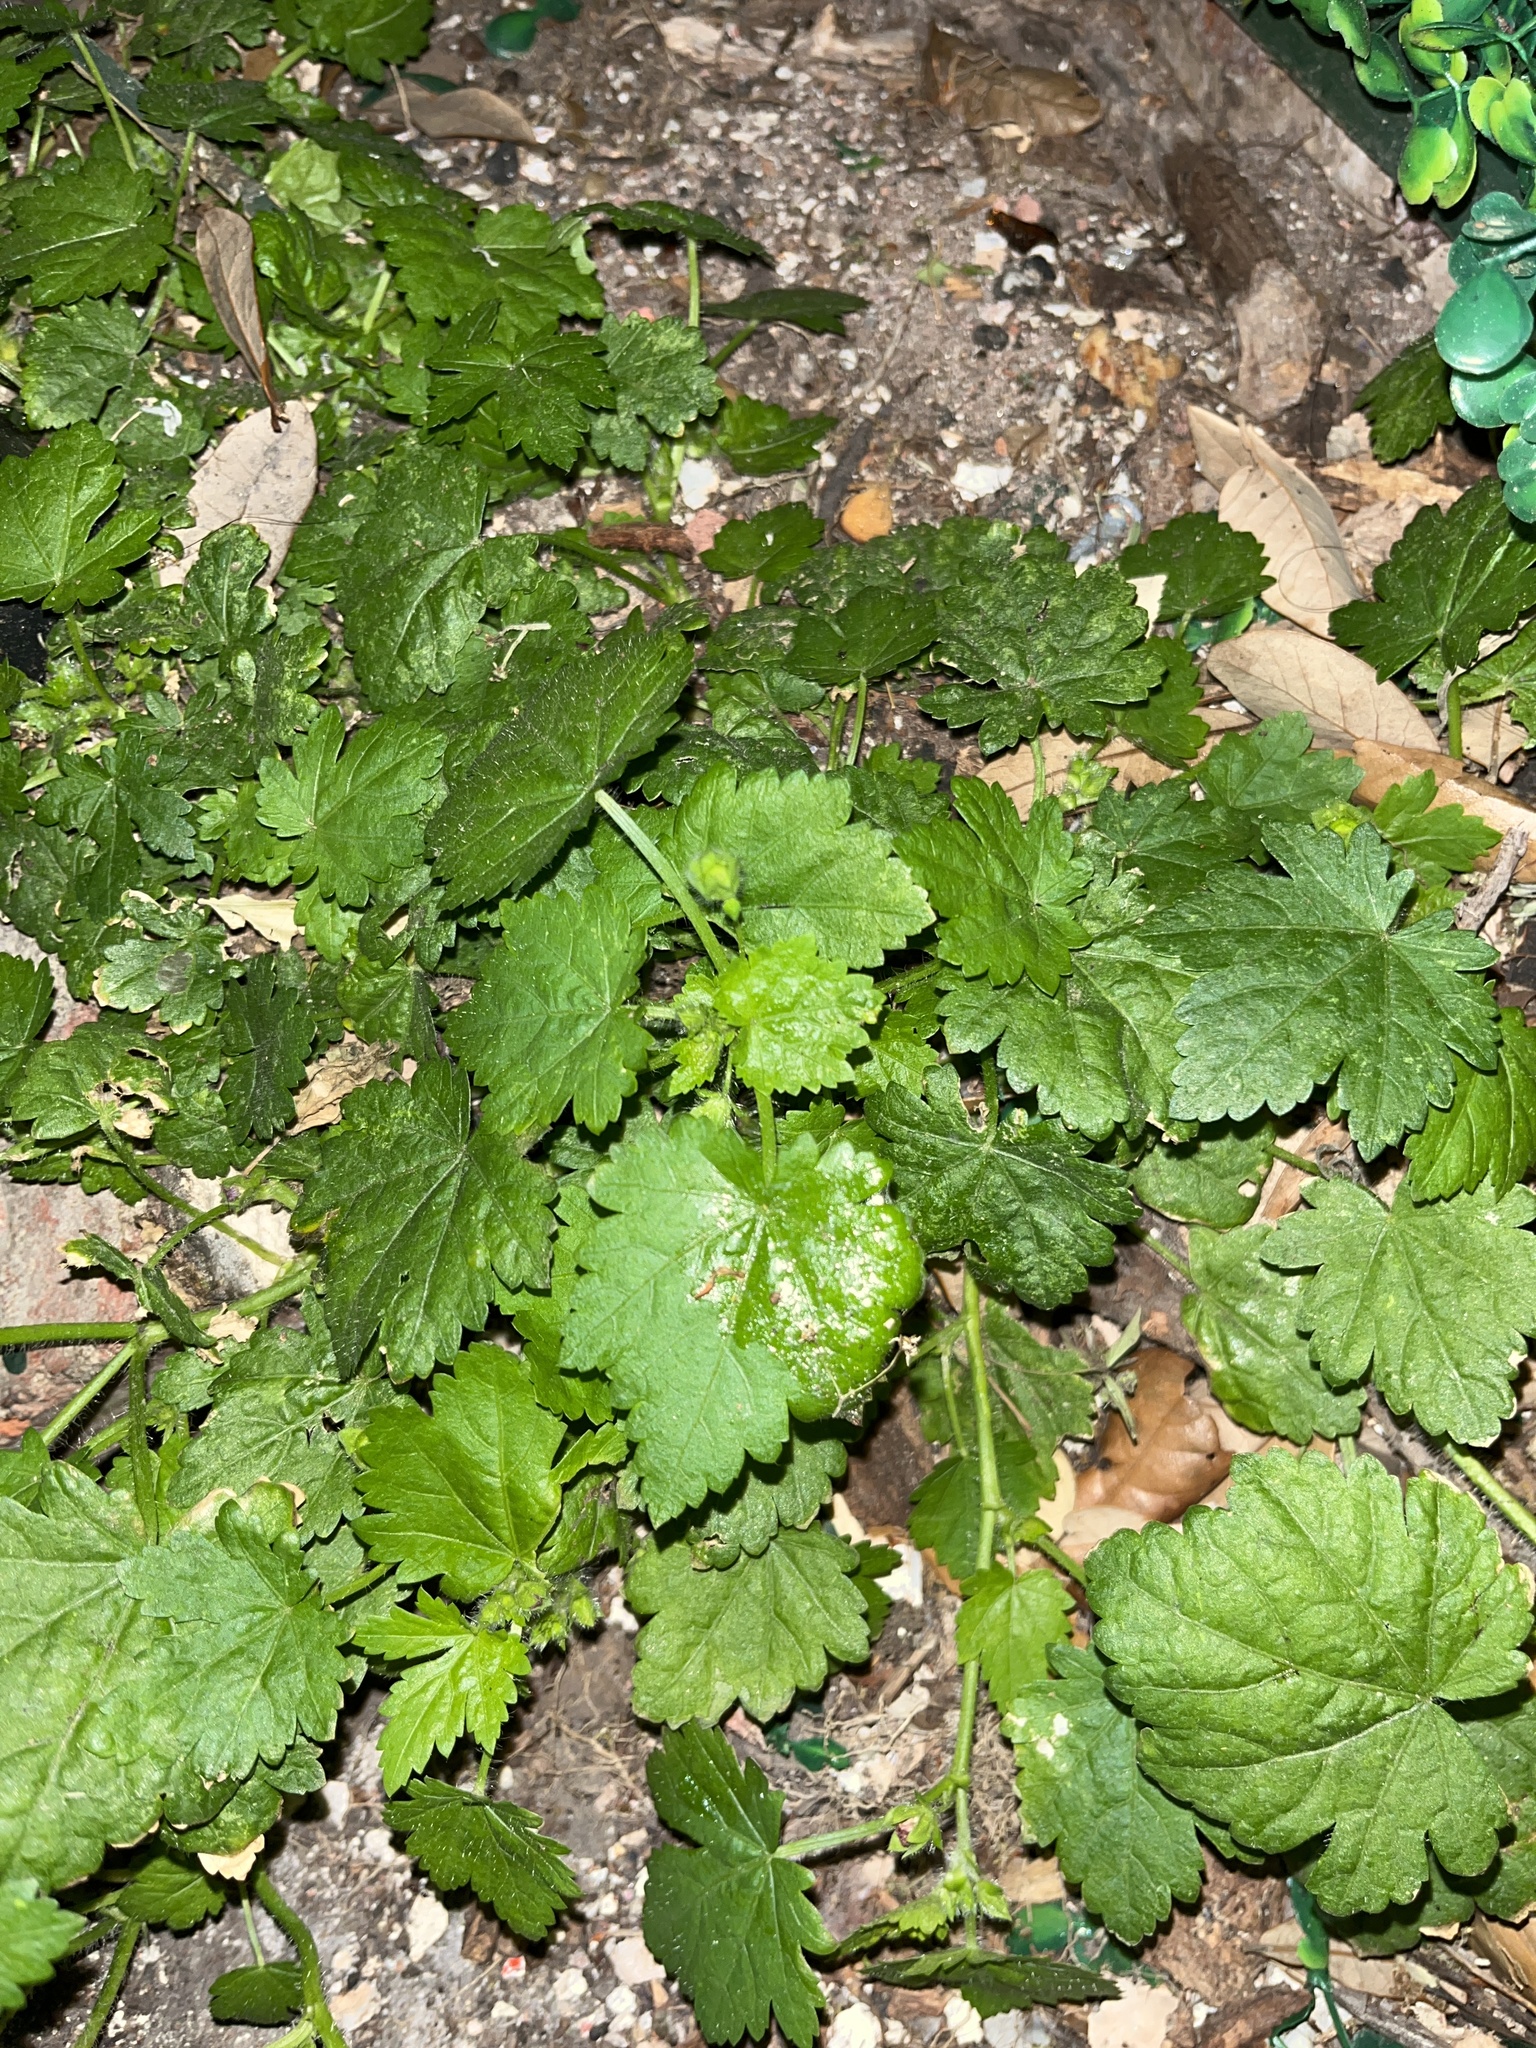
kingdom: Plantae
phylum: Tracheophyta
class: Magnoliopsida
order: Malvales
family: Malvaceae
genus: Modiola
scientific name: Modiola caroliniana
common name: Carolina bristlemallow
